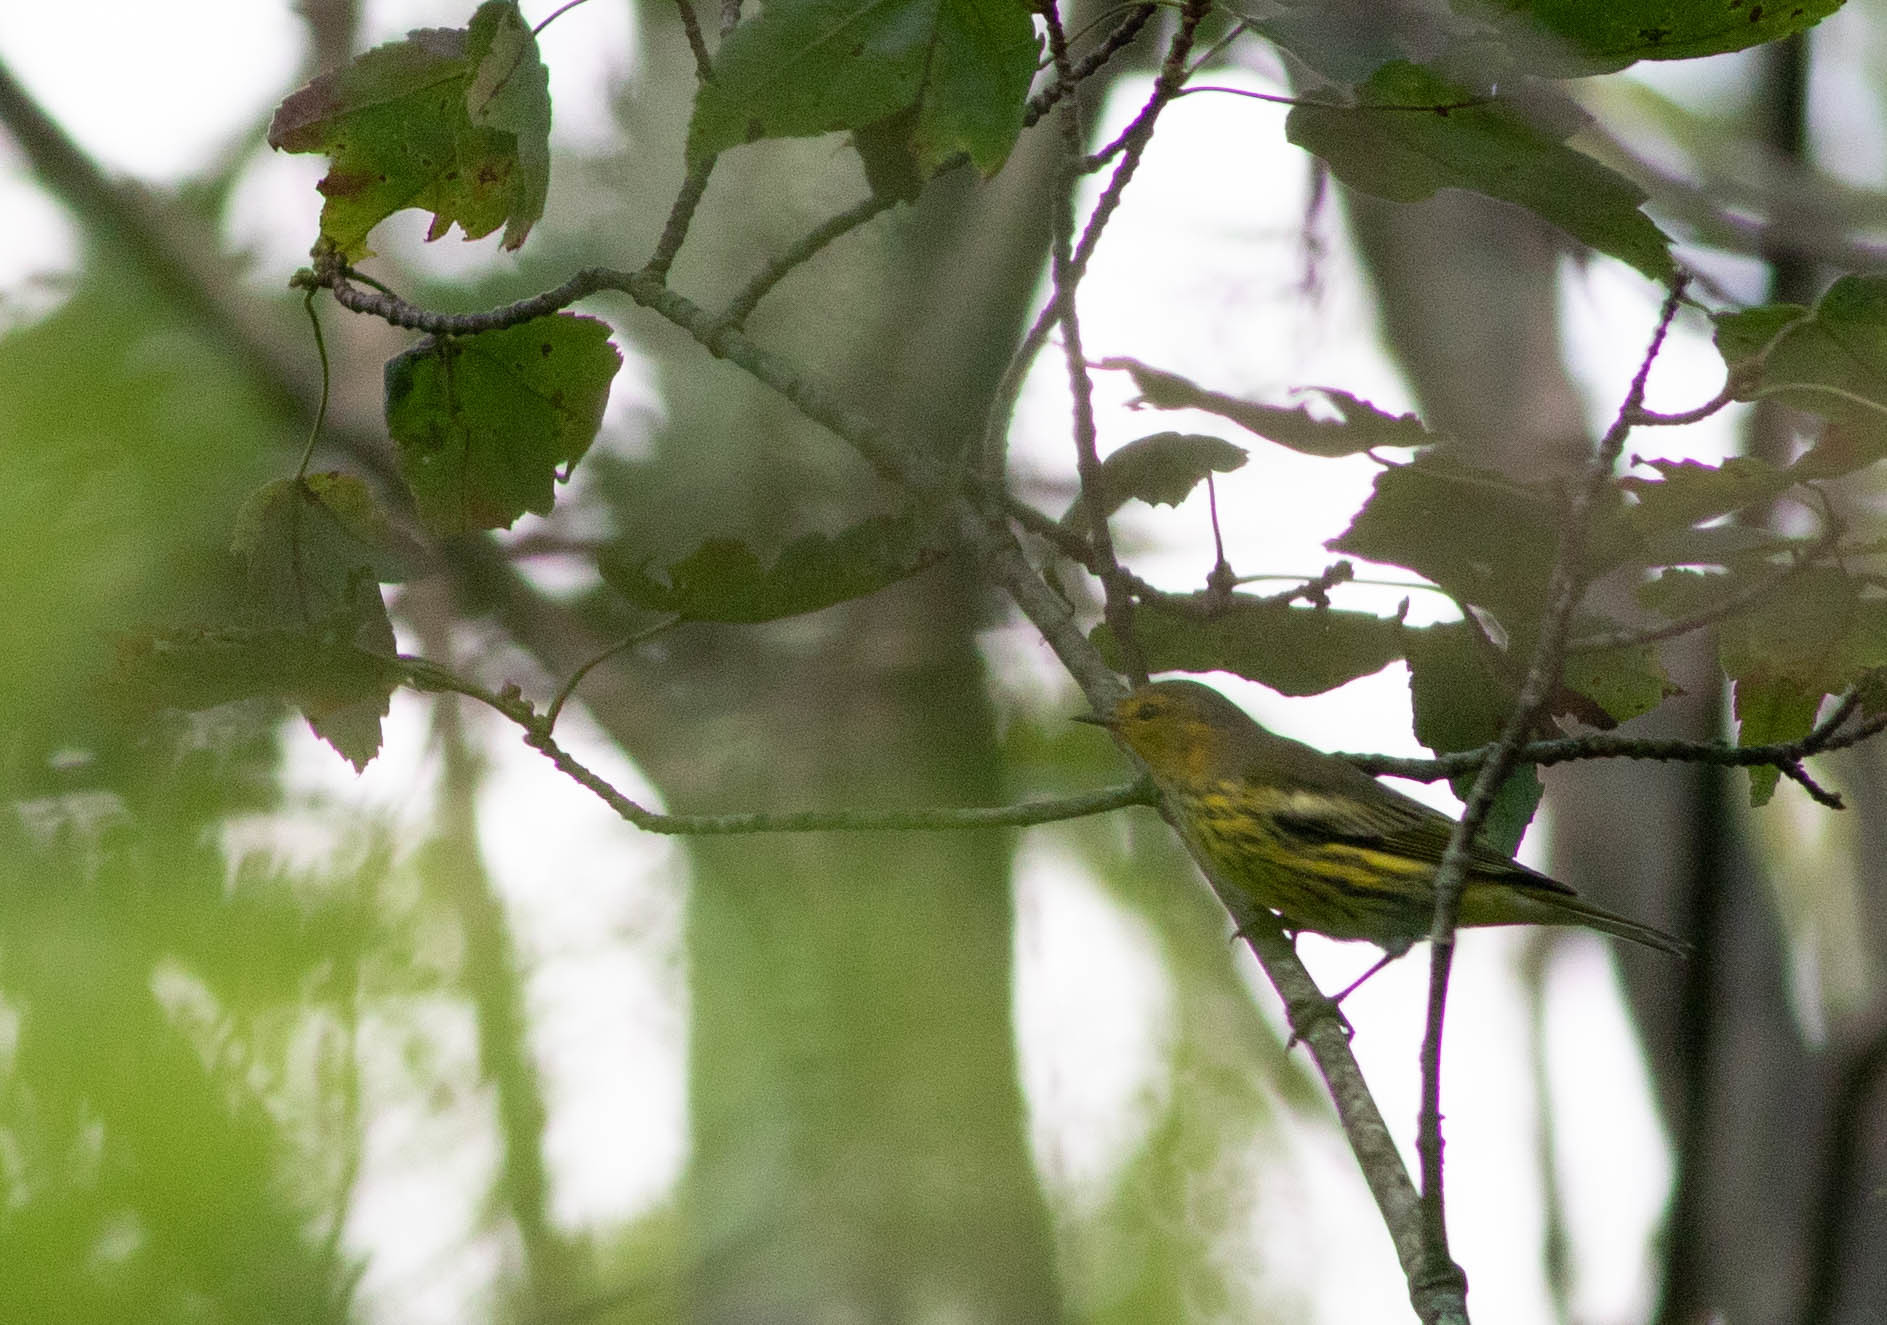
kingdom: Animalia
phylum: Chordata
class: Aves
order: Passeriformes
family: Parulidae
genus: Setophaga
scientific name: Setophaga tigrina
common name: Cape may warbler
